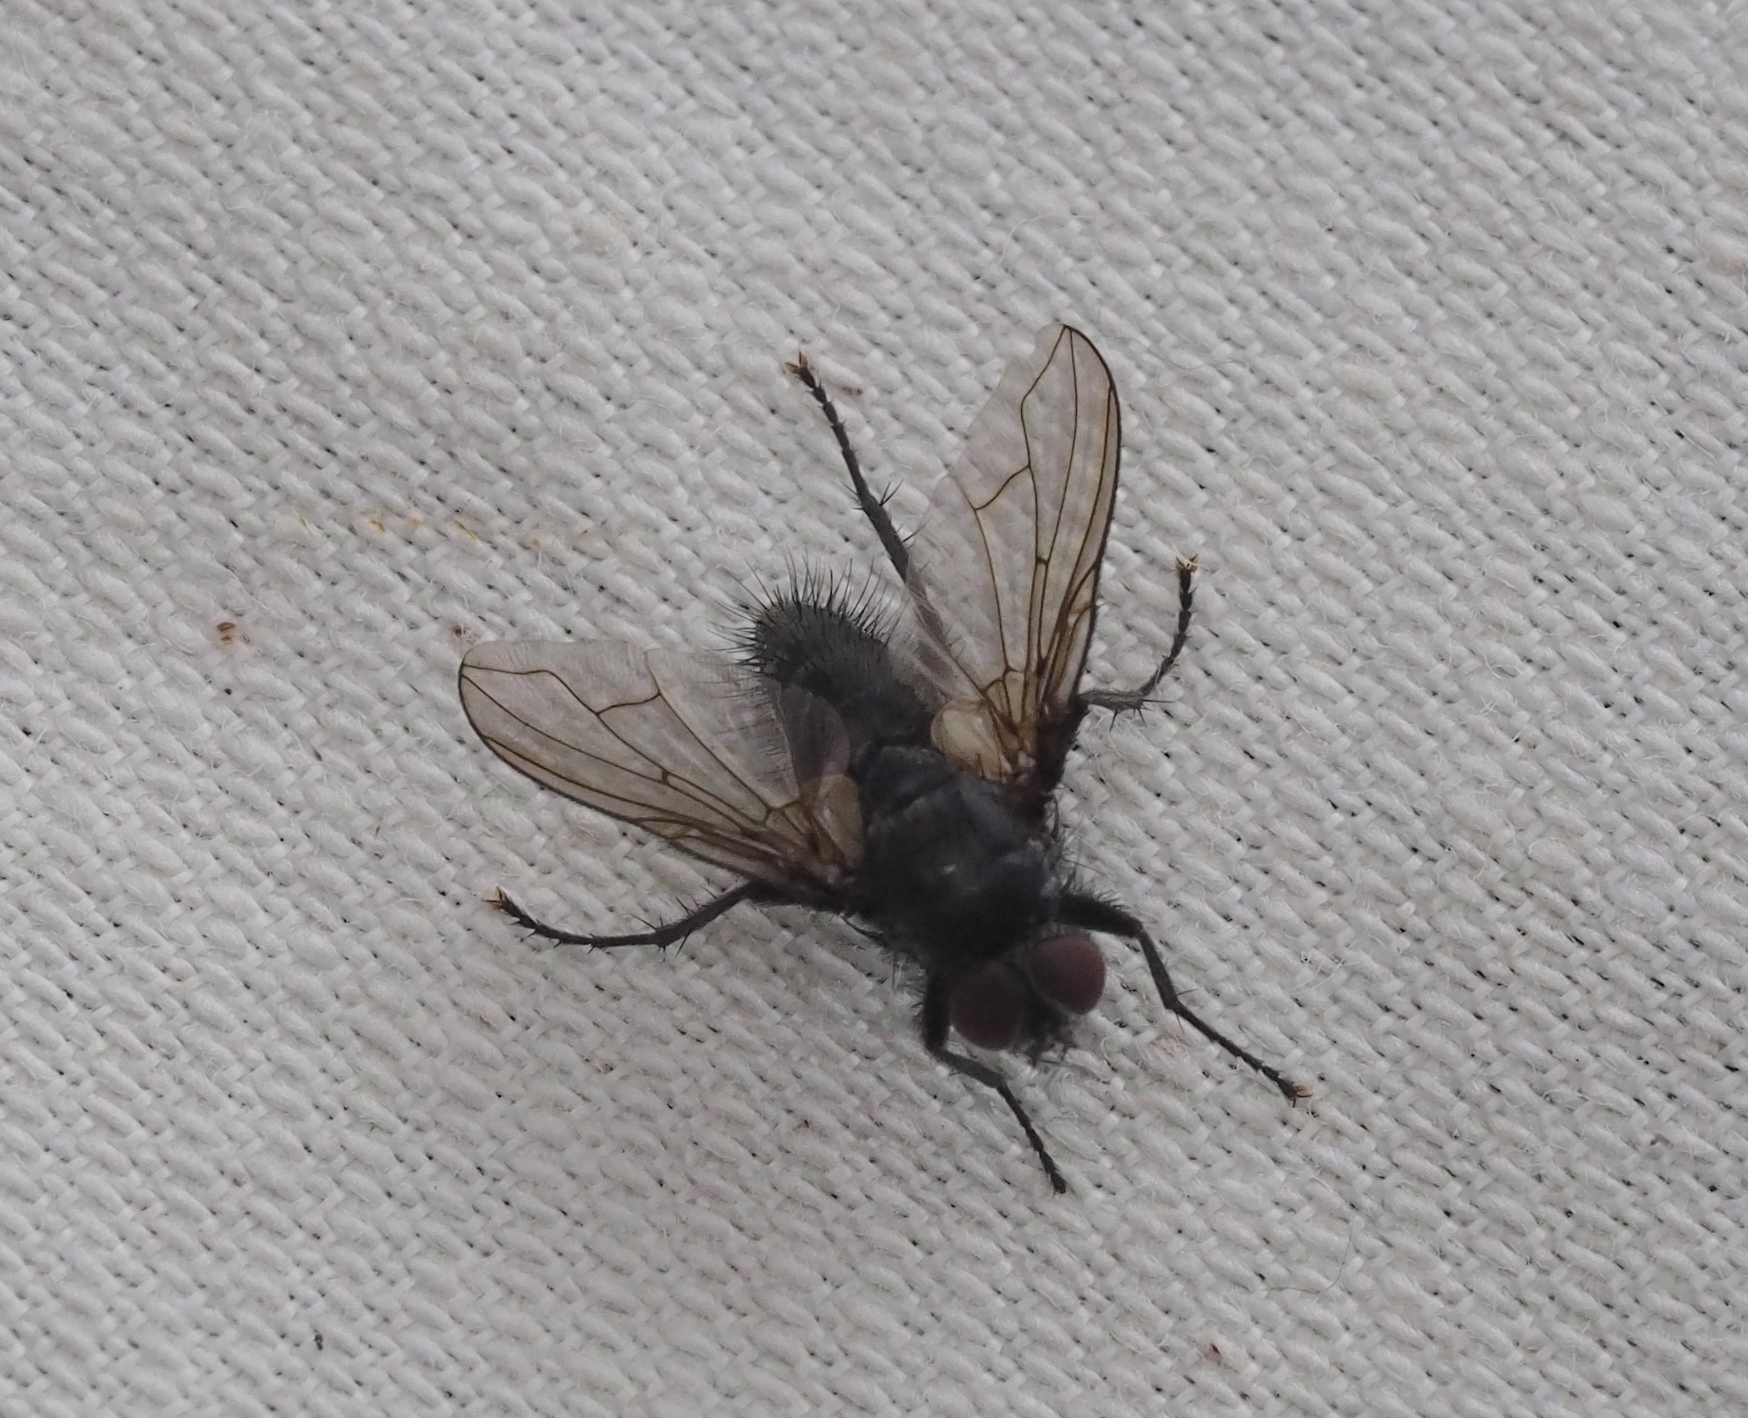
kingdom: Animalia
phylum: Arthropoda
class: Insecta
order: Diptera
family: Calliphoridae
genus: Rhinomorinia
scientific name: Rhinomorinia sarcophagina
